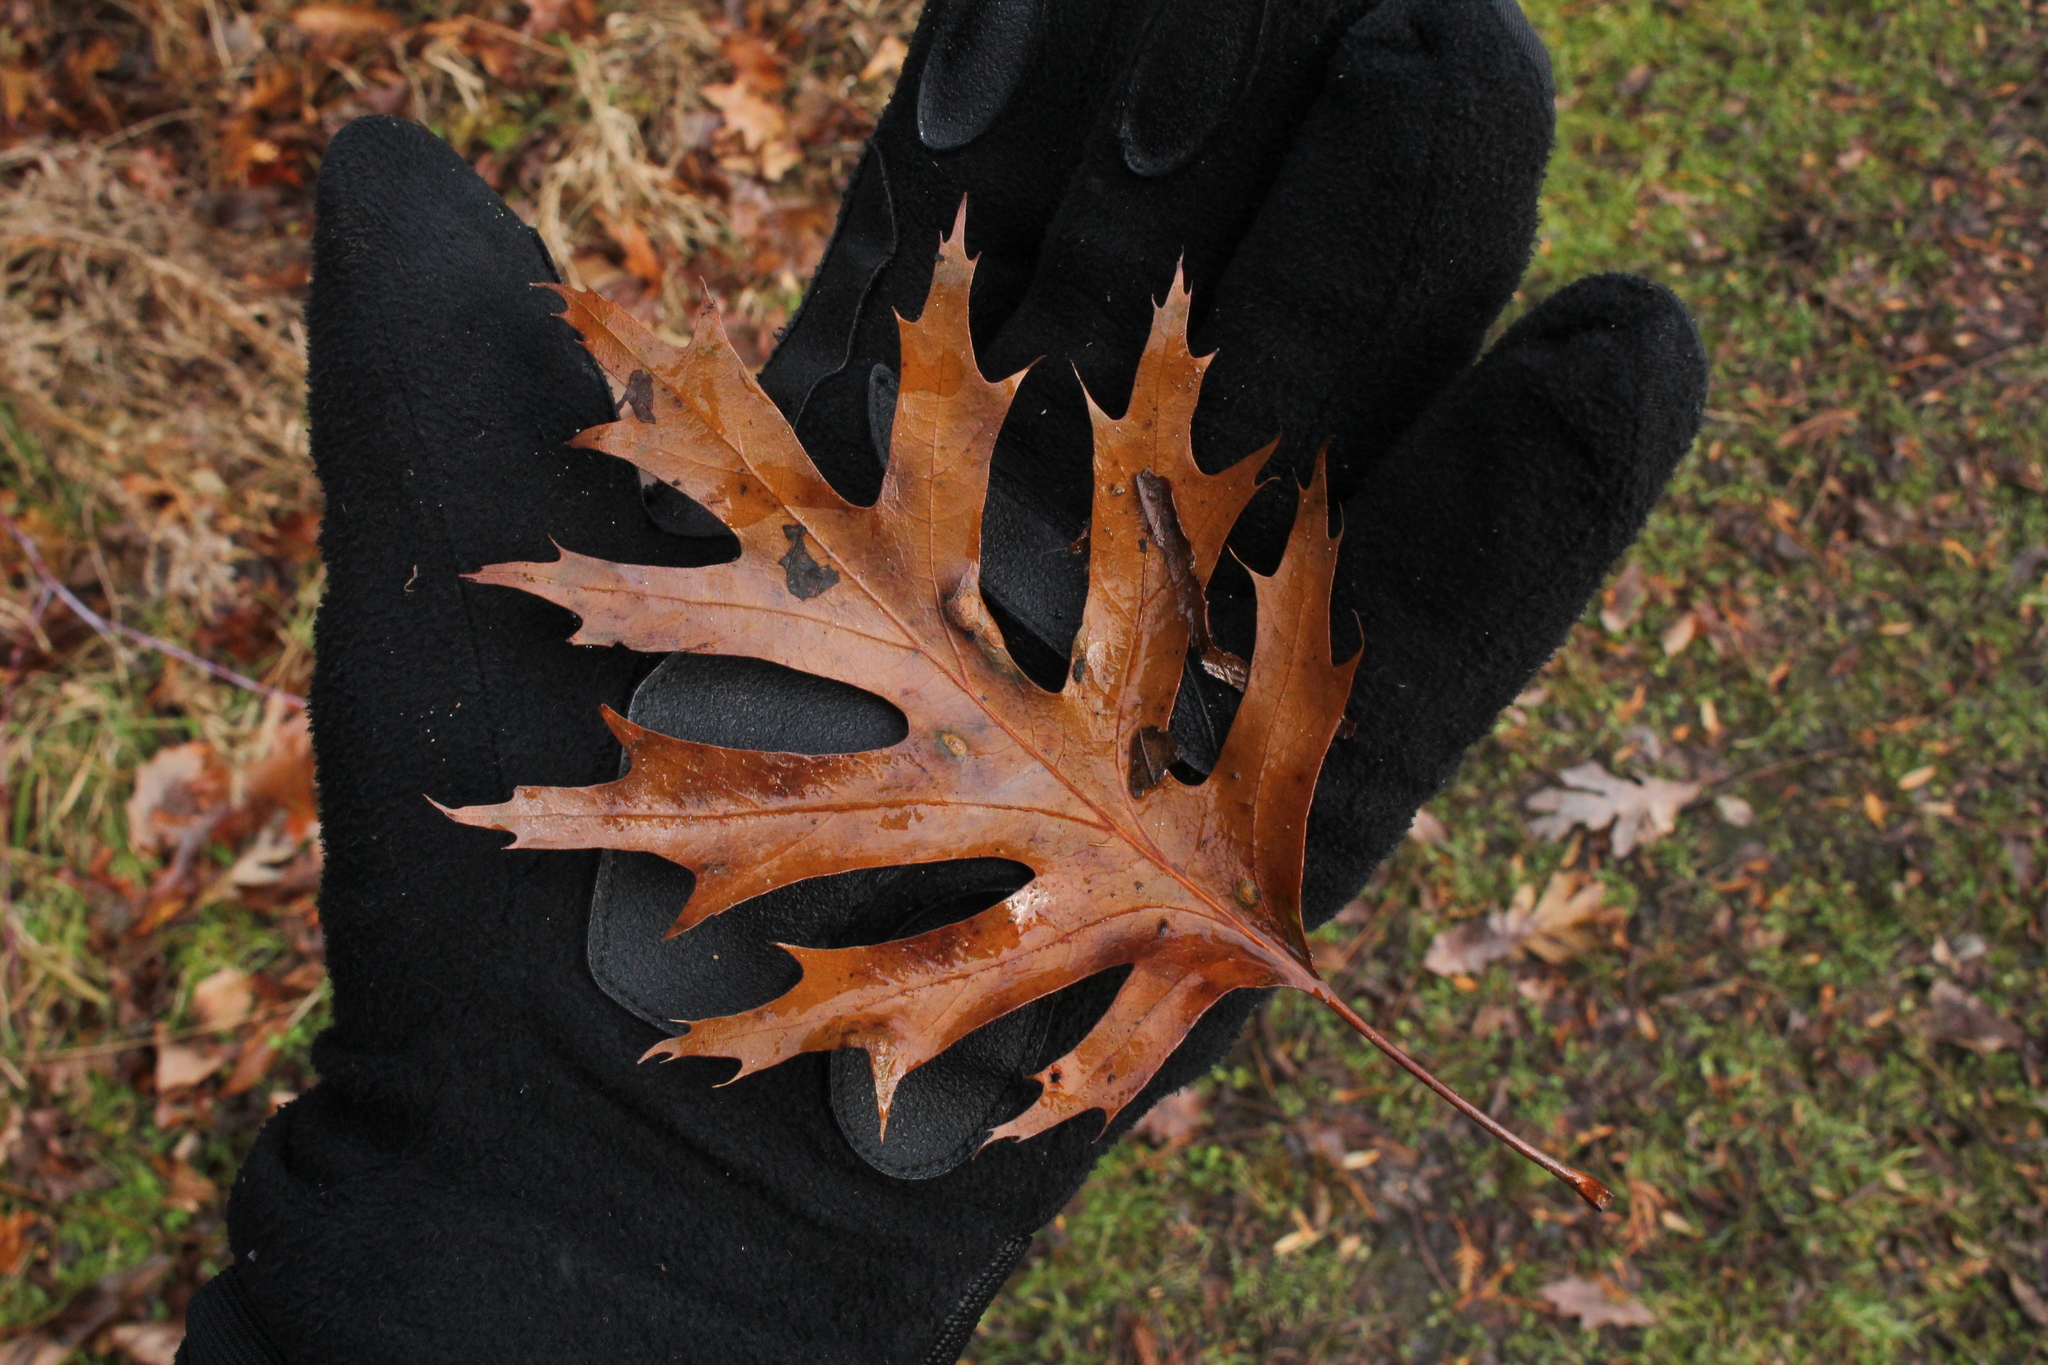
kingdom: Plantae
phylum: Tracheophyta
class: Magnoliopsida
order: Fagales
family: Fagaceae
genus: Quercus
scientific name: Quercus velutina
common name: Black oak
